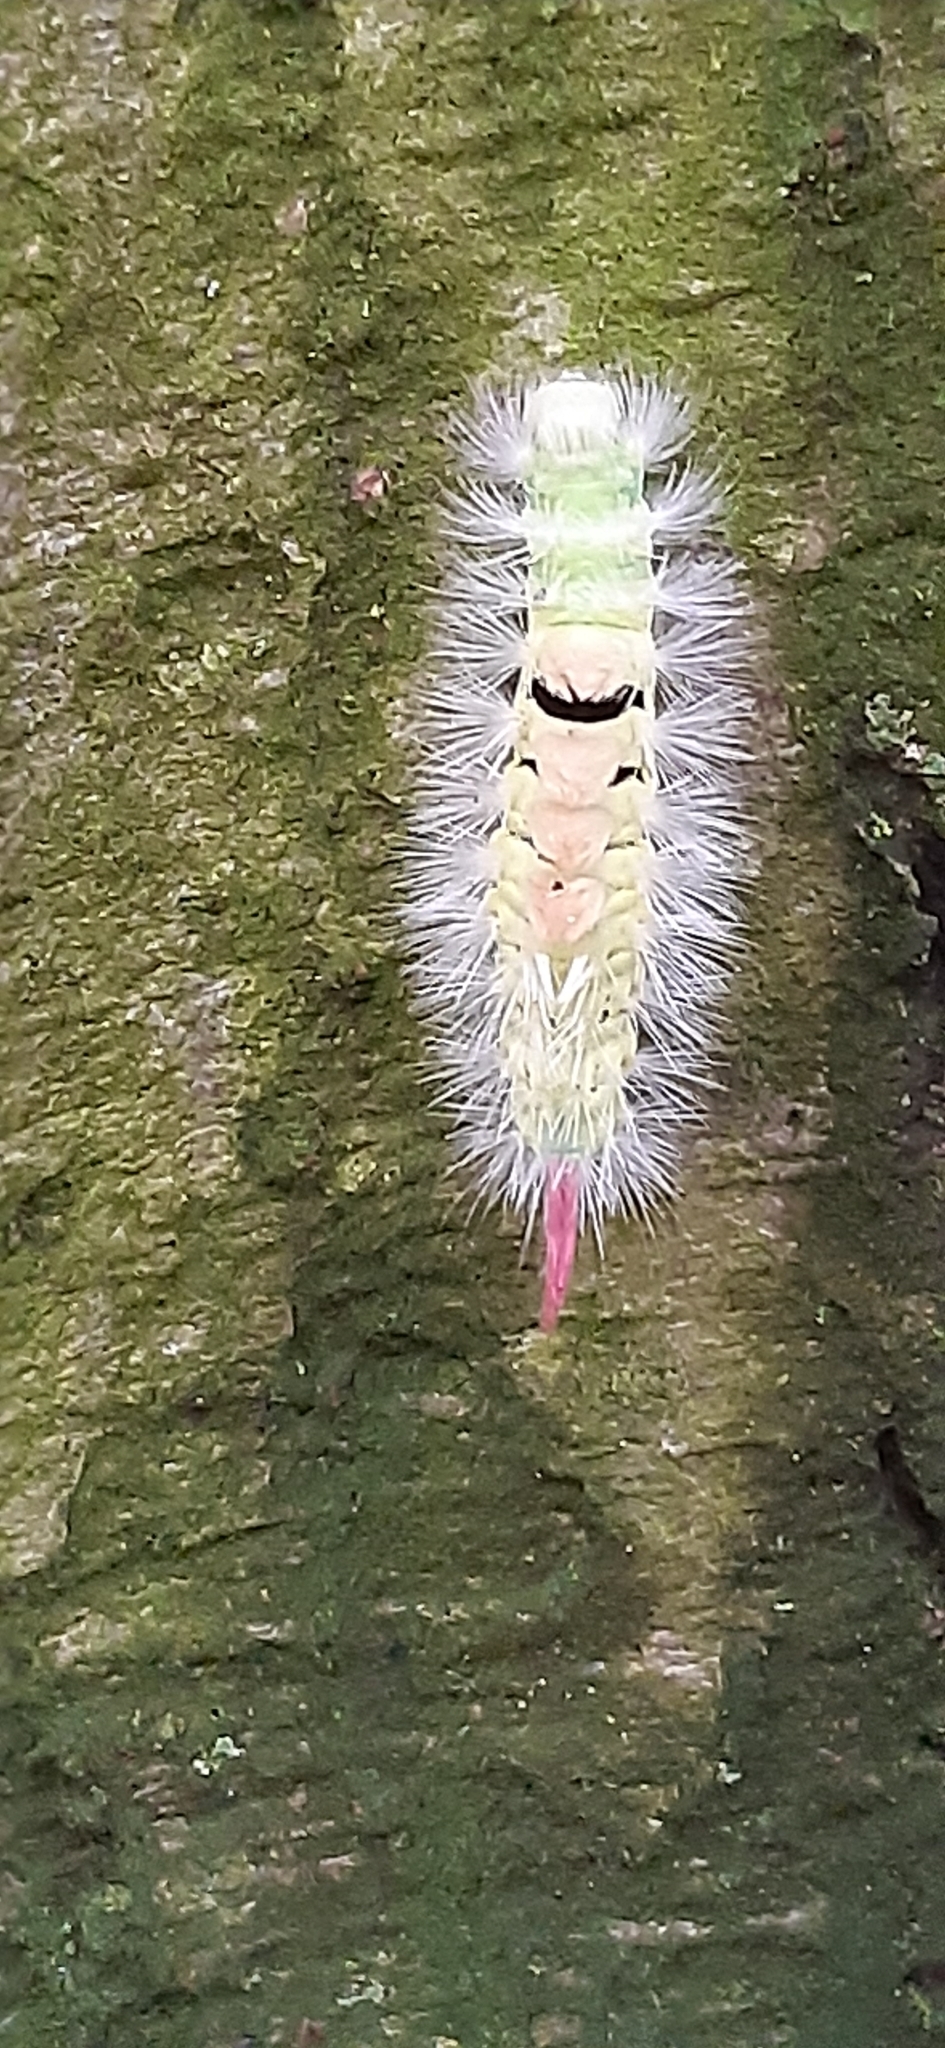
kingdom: Animalia
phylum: Arthropoda
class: Insecta
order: Lepidoptera
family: Erebidae
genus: Calliteara
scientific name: Calliteara pudibunda
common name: Pale tussock
